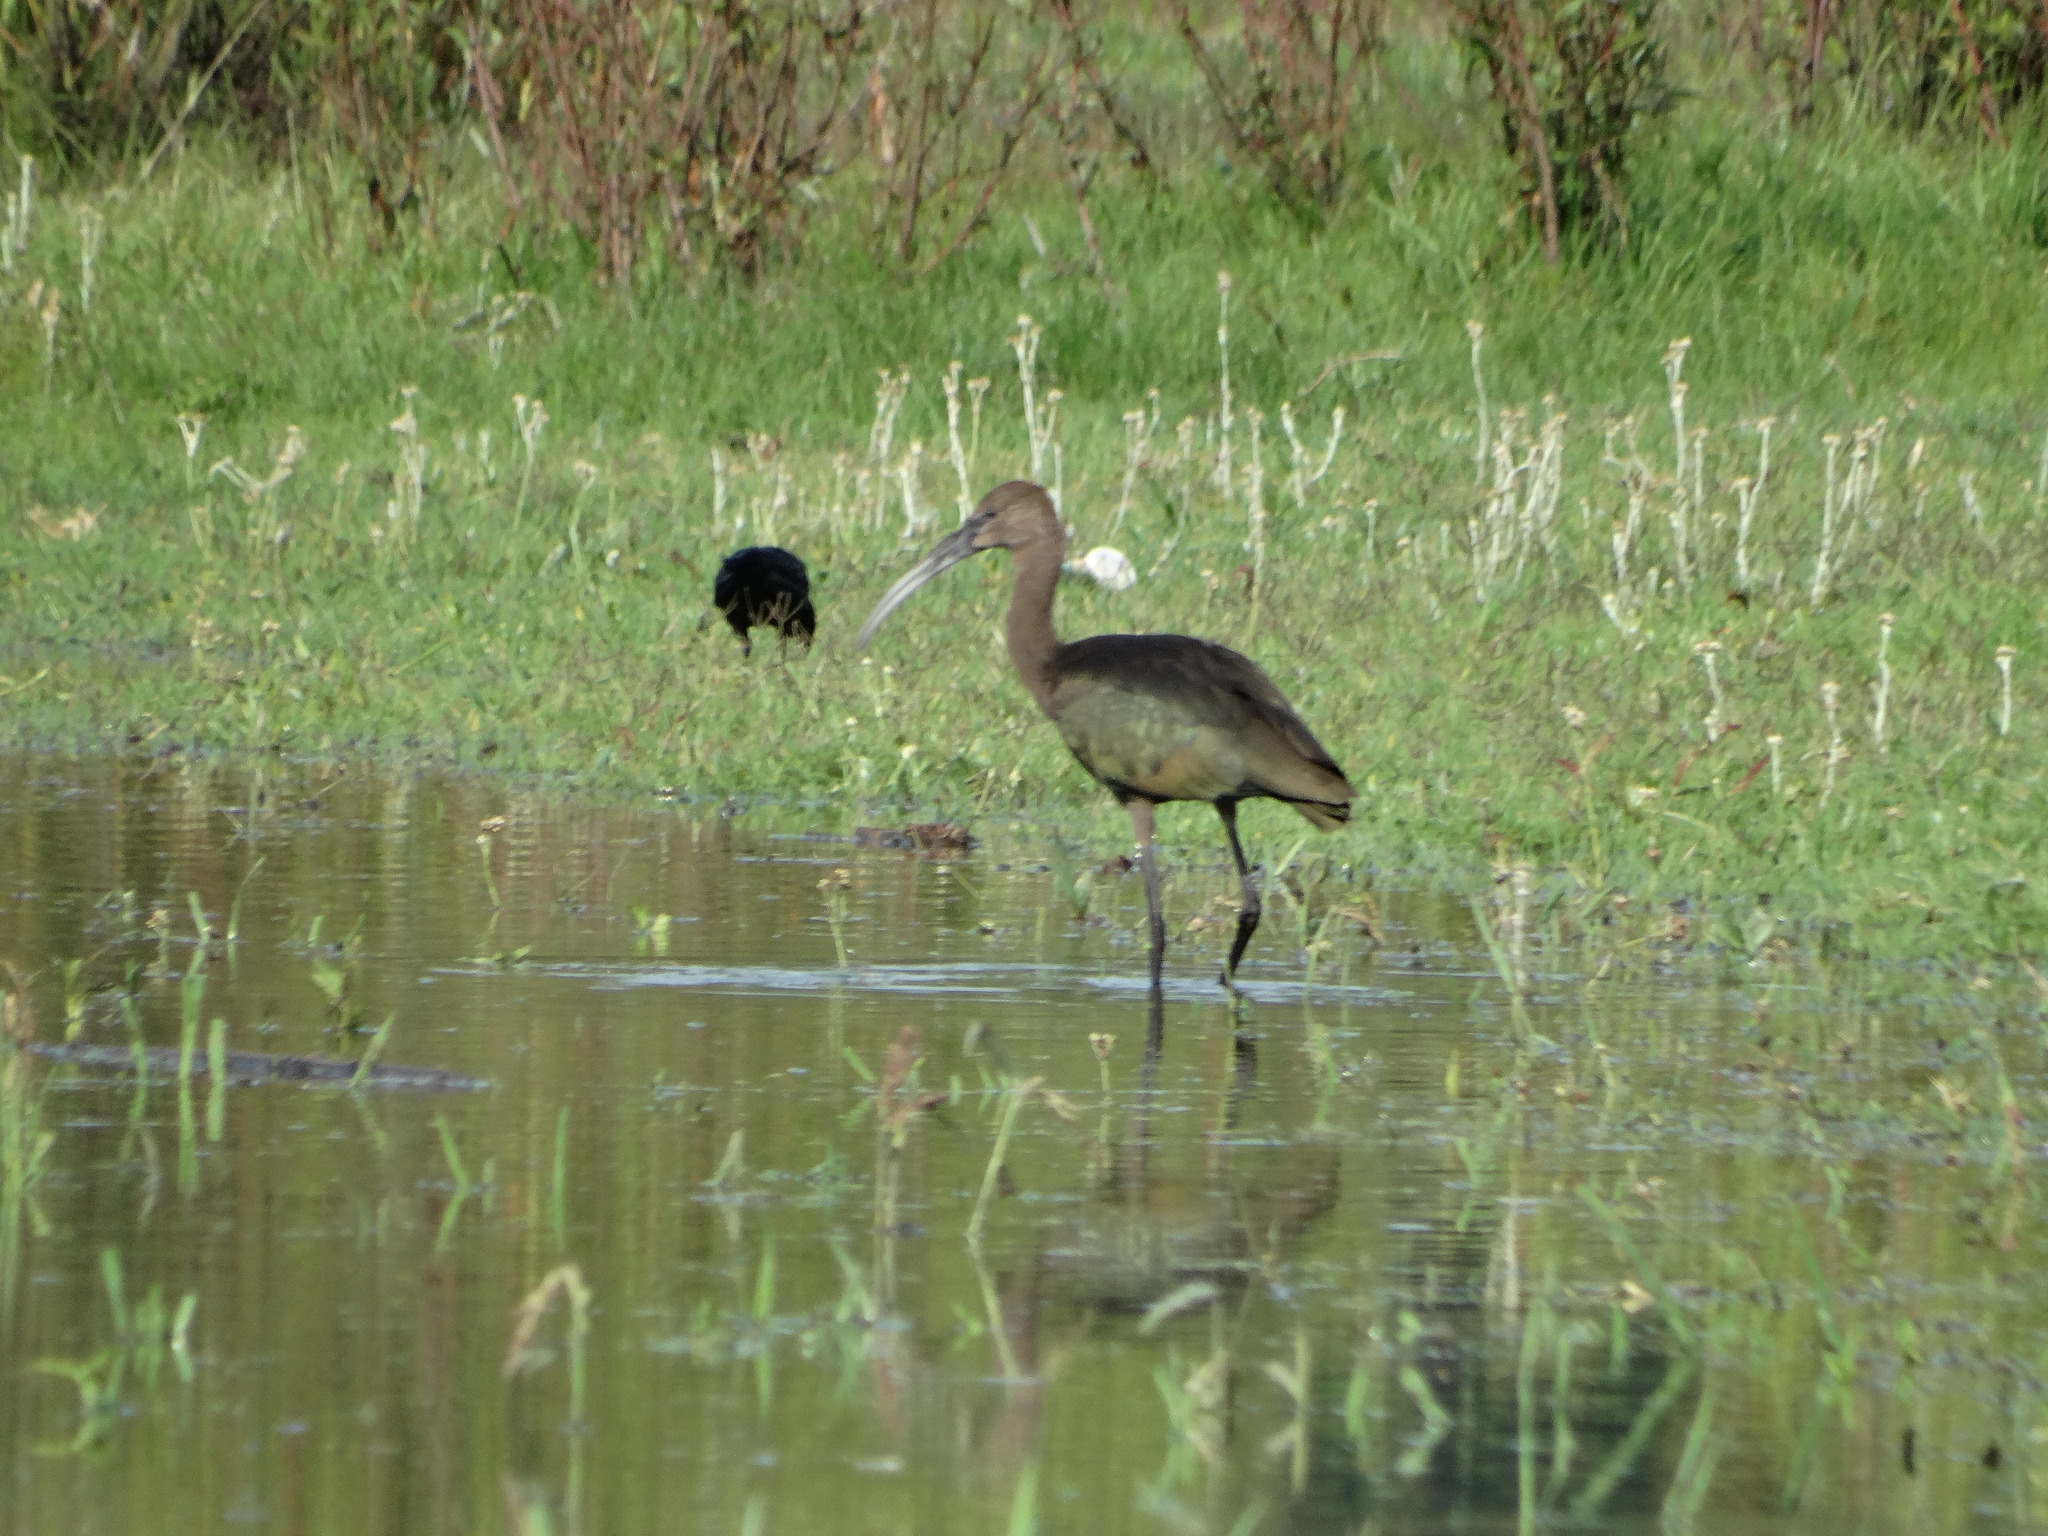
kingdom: Animalia
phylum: Chordata
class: Aves
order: Pelecaniformes
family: Threskiornithidae
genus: Plegadis
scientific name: Plegadis chihi
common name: White-faced ibis
